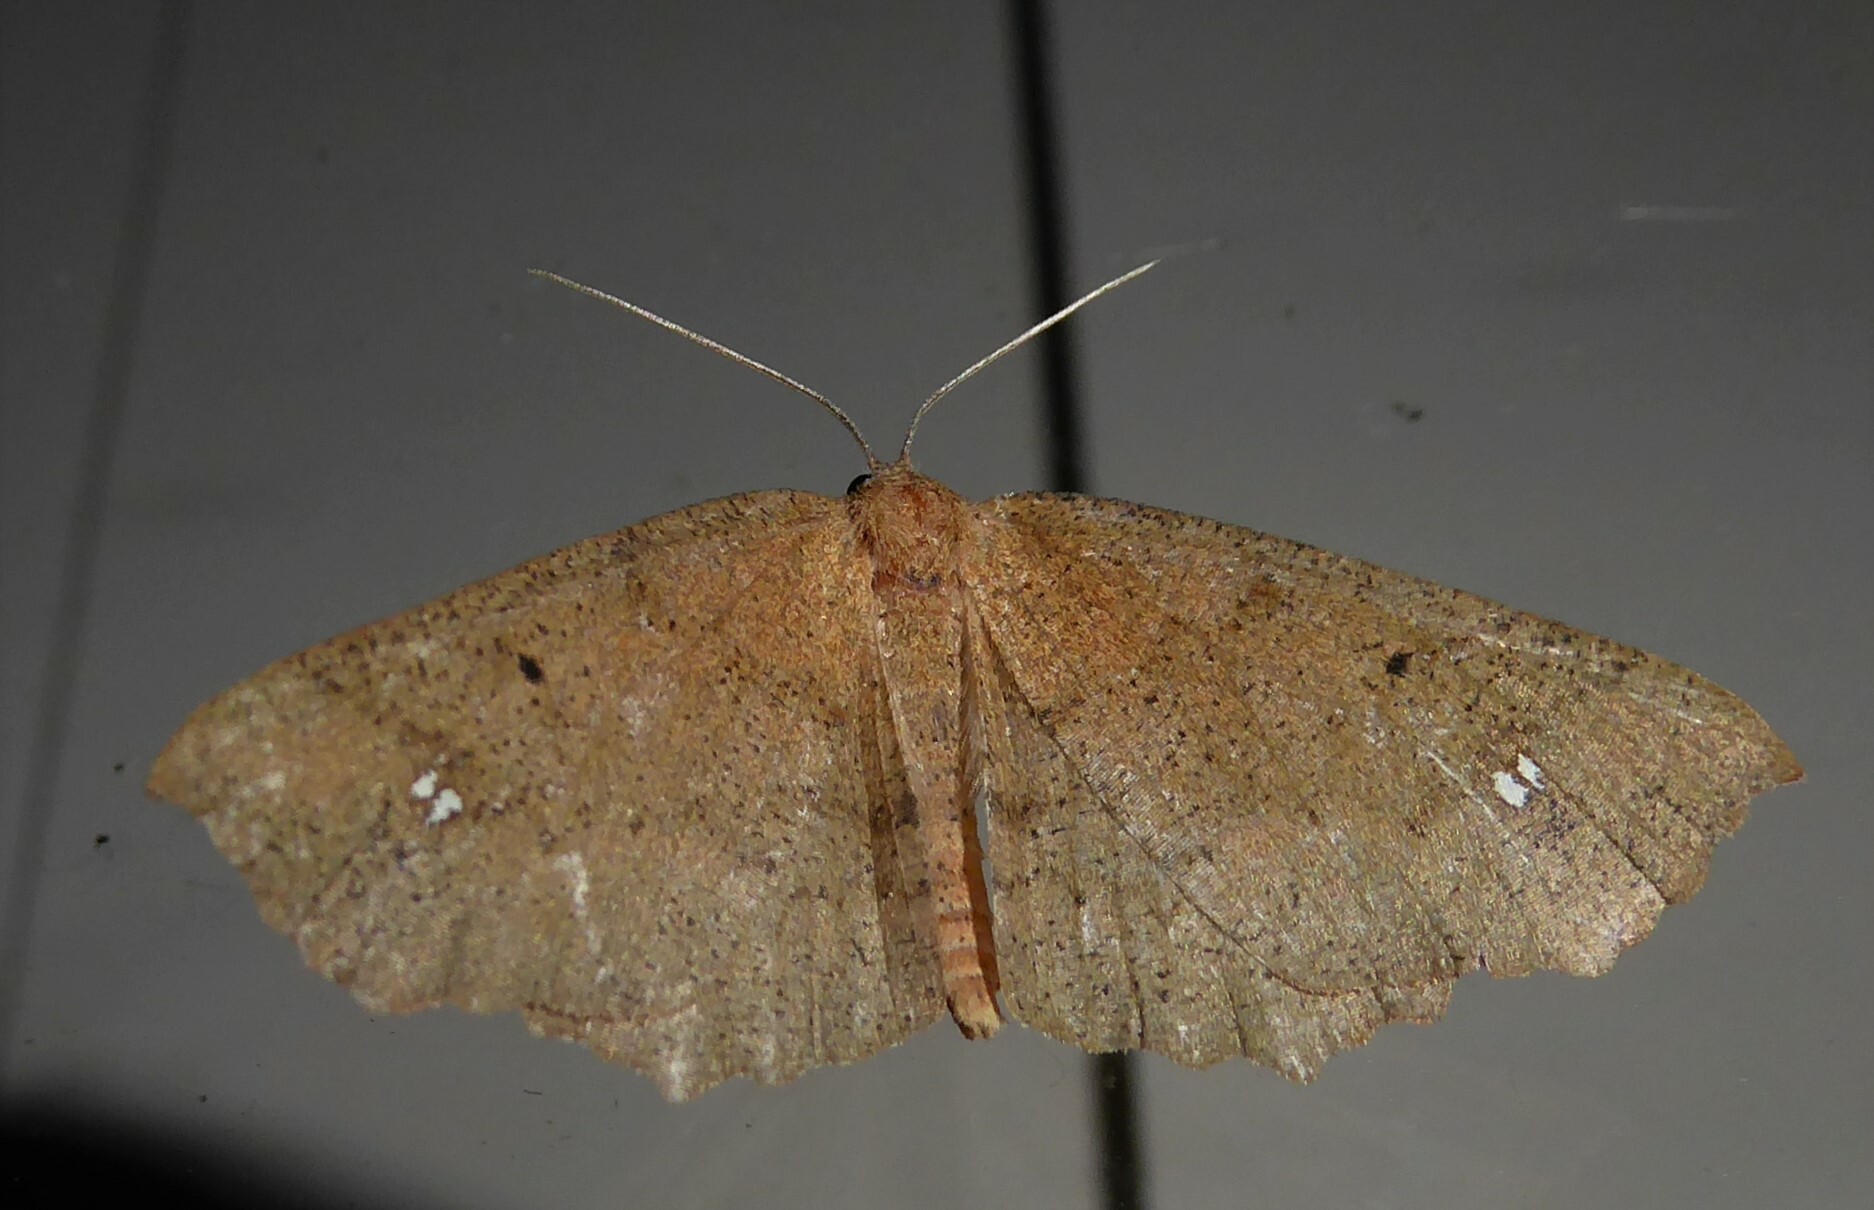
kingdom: Animalia
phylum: Arthropoda
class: Insecta
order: Lepidoptera
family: Geometridae
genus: Xyridacma
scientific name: Xyridacma ustaria
